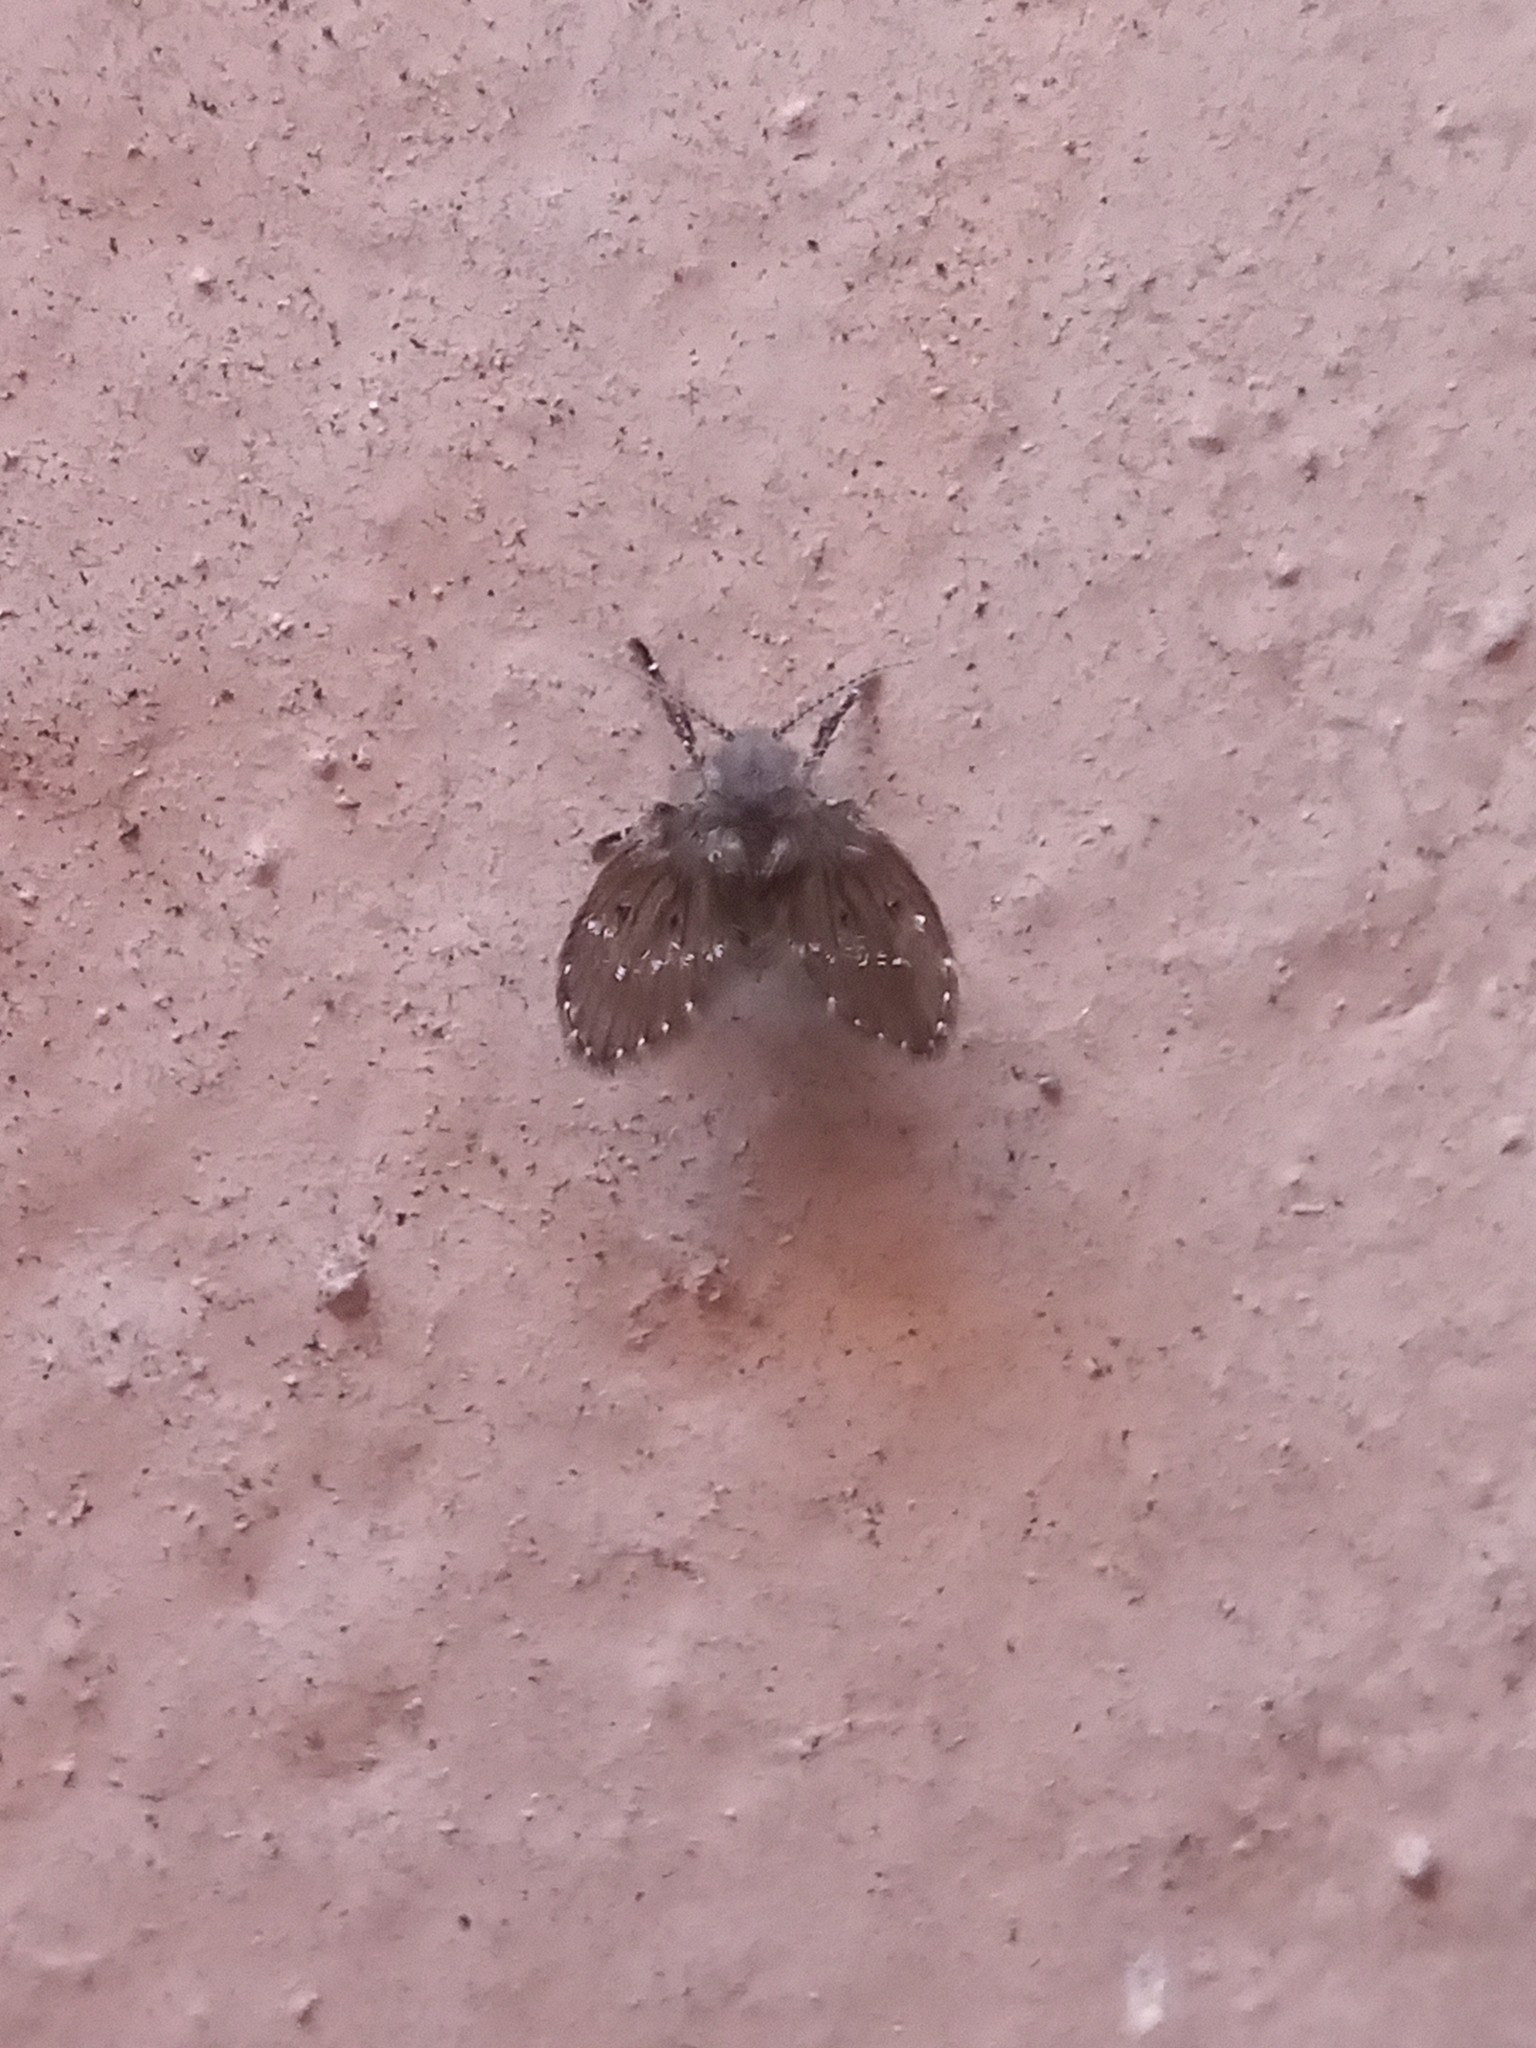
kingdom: Animalia
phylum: Arthropoda
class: Insecta
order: Diptera
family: Psychodidae
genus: Clogmia
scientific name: Clogmia albipunctatus
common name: White-spotted moth fly
